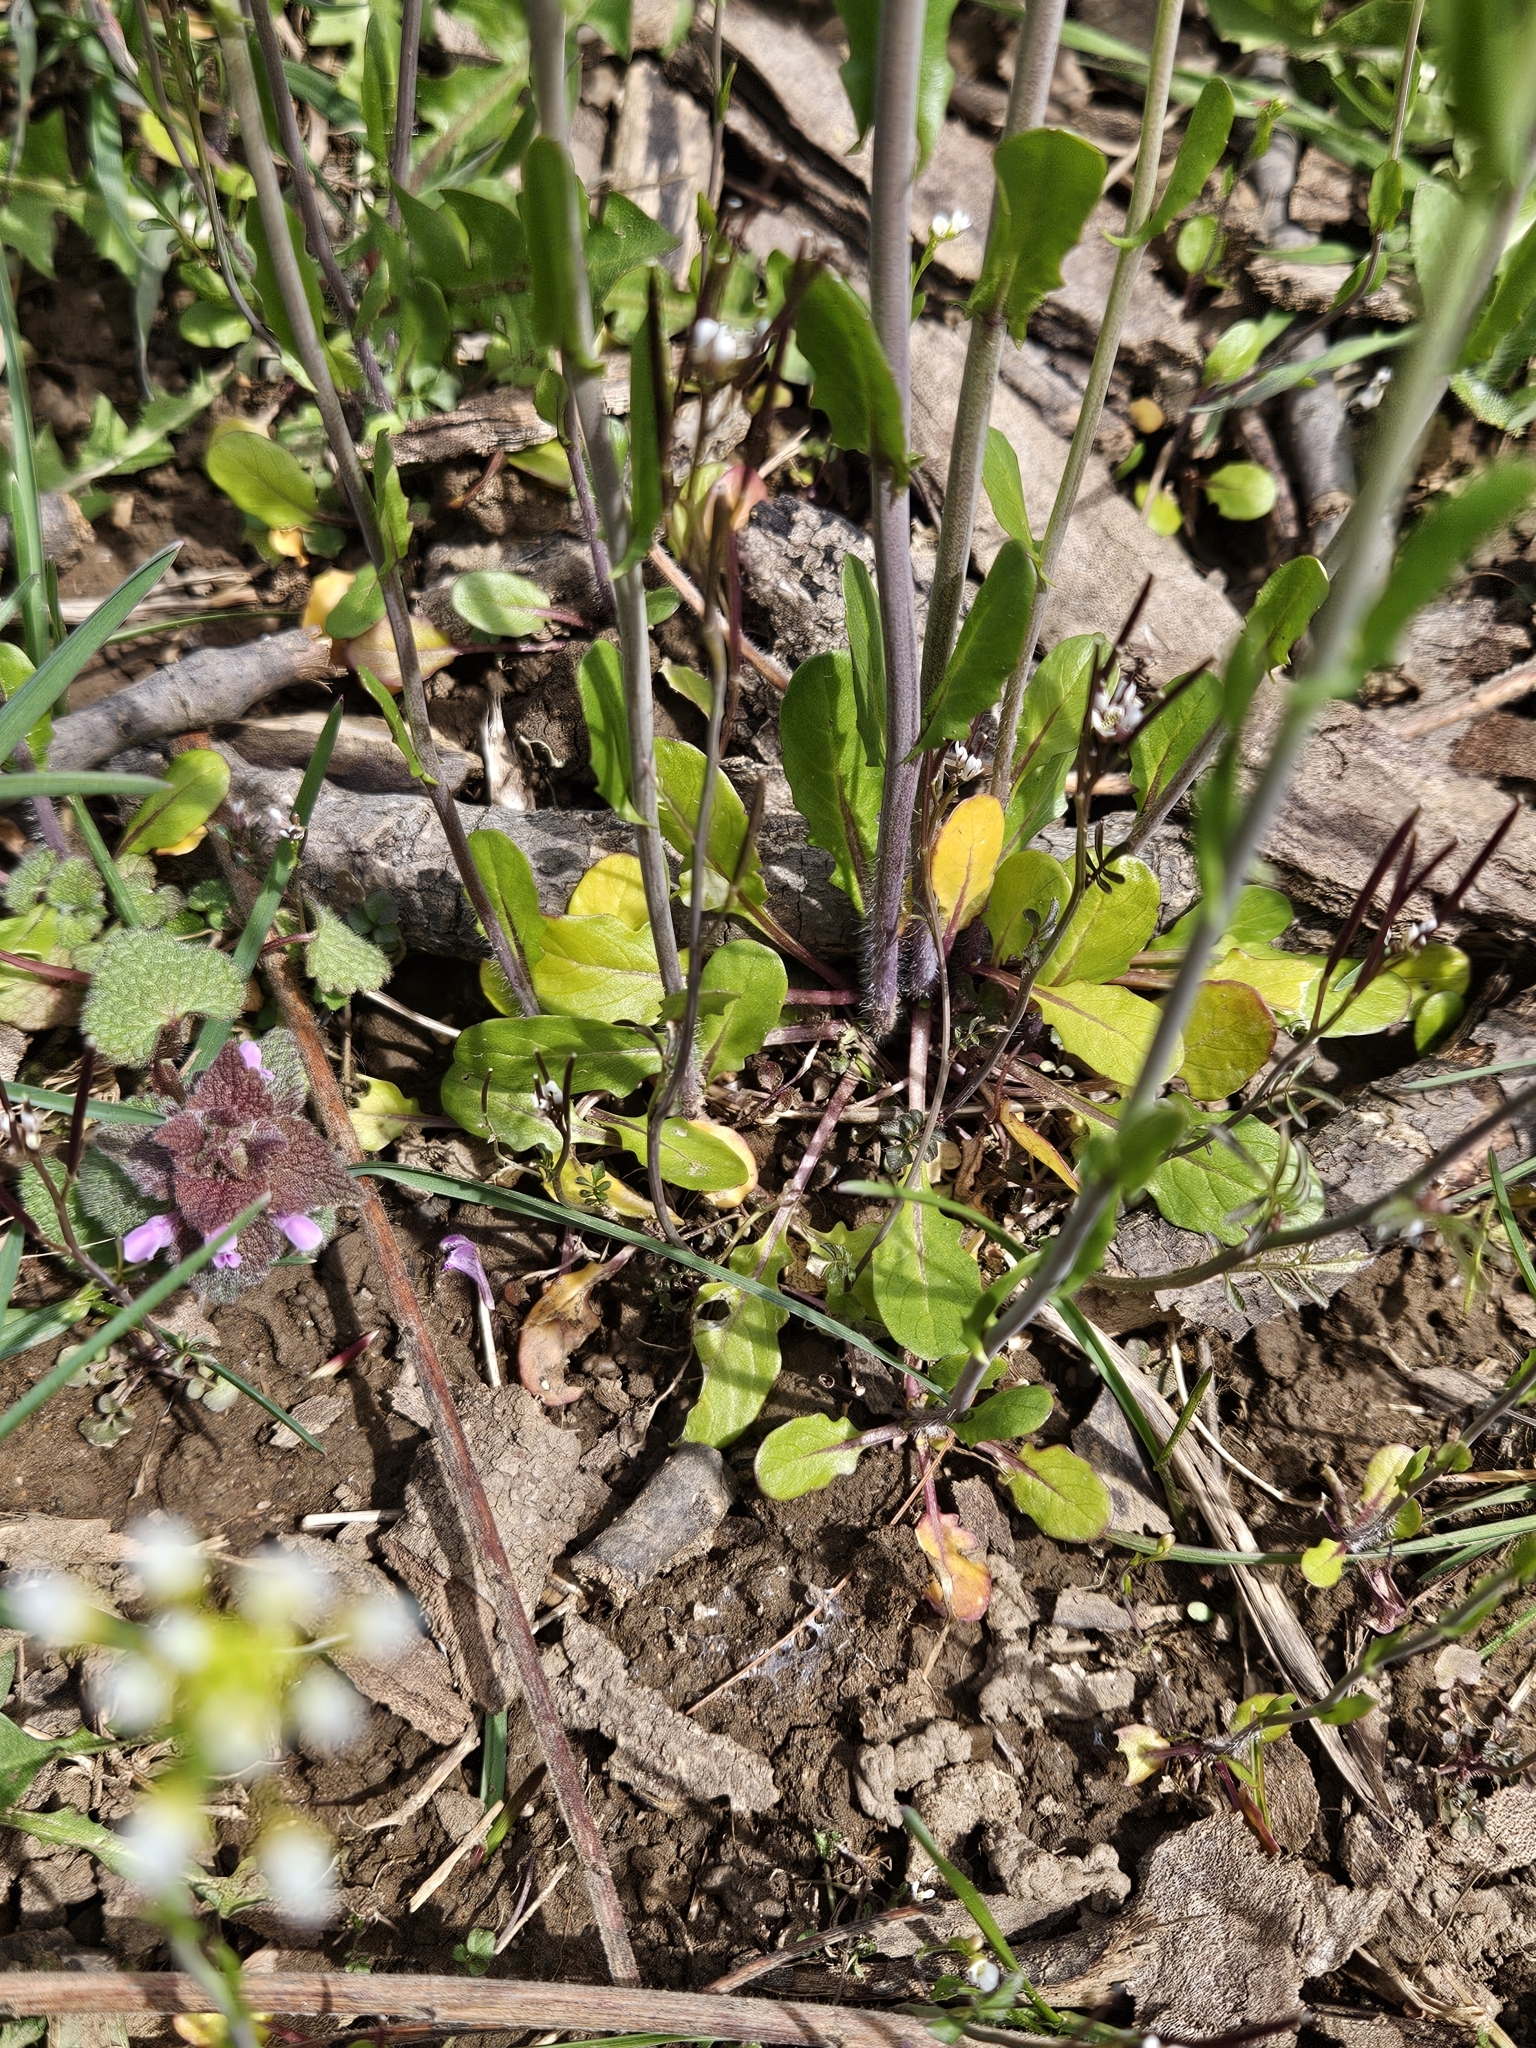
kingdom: Plantae
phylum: Tracheophyta
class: Magnoliopsida
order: Brassicales
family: Brassicaceae
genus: Mummenhoffia
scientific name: Mummenhoffia alliacea
